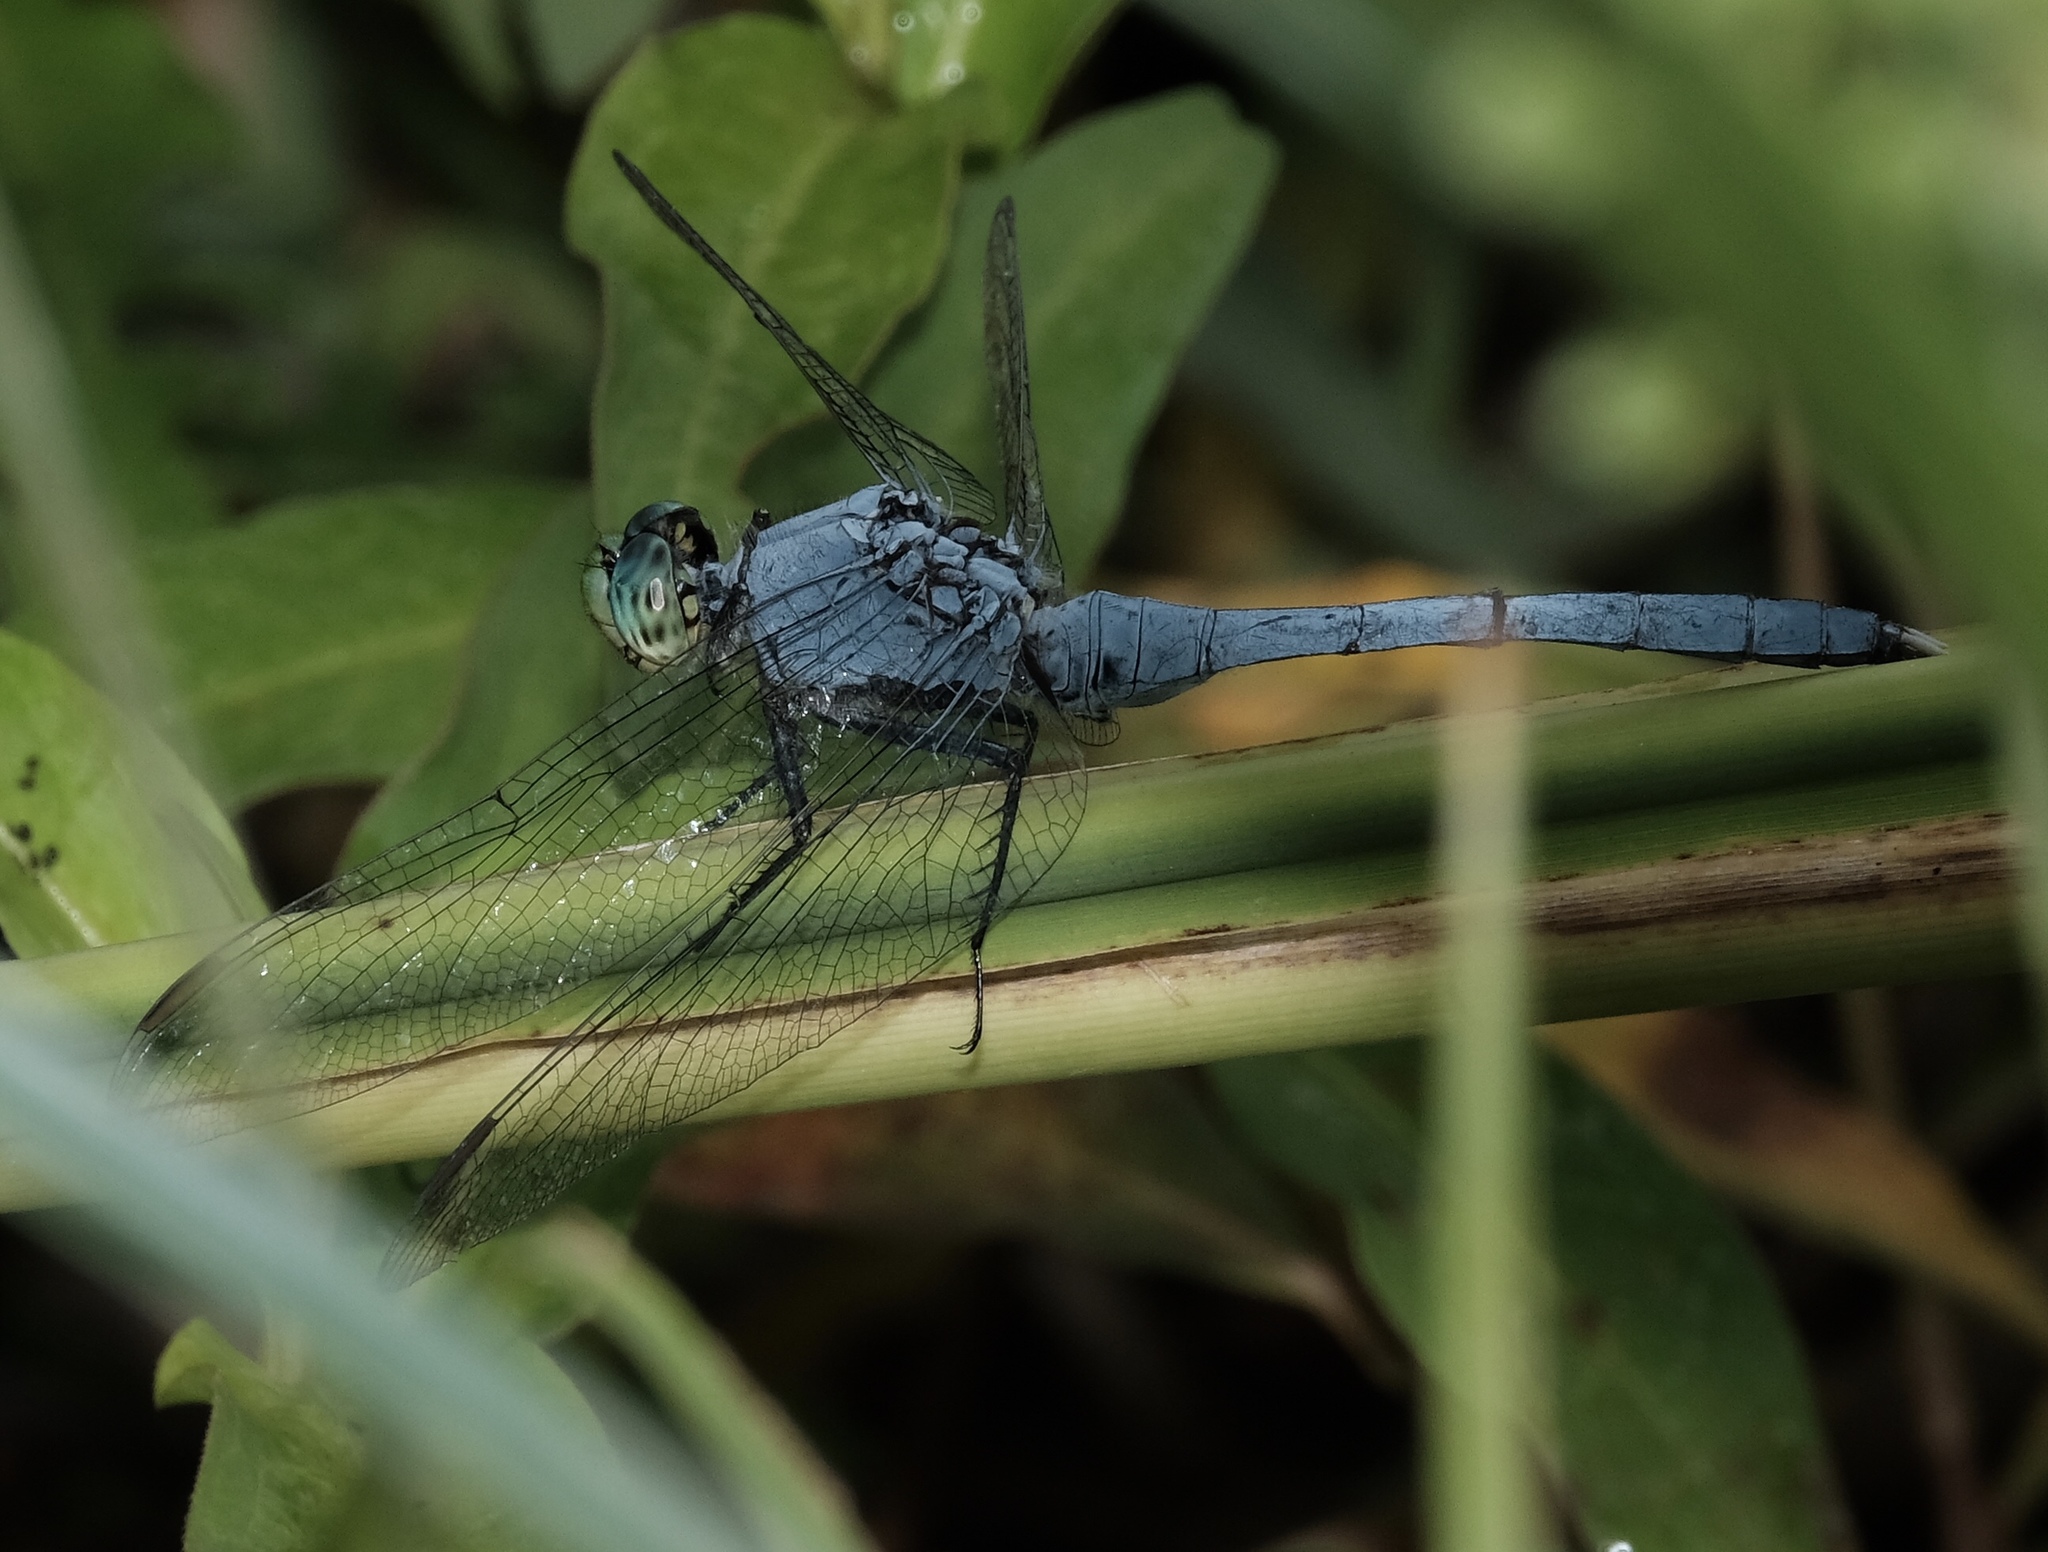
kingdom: Animalia
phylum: Arthropoda
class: Insecta
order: Odonata
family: Libellulidae
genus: Erythemis
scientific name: Erythemis simplicicollis
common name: Eastern pondhawk
